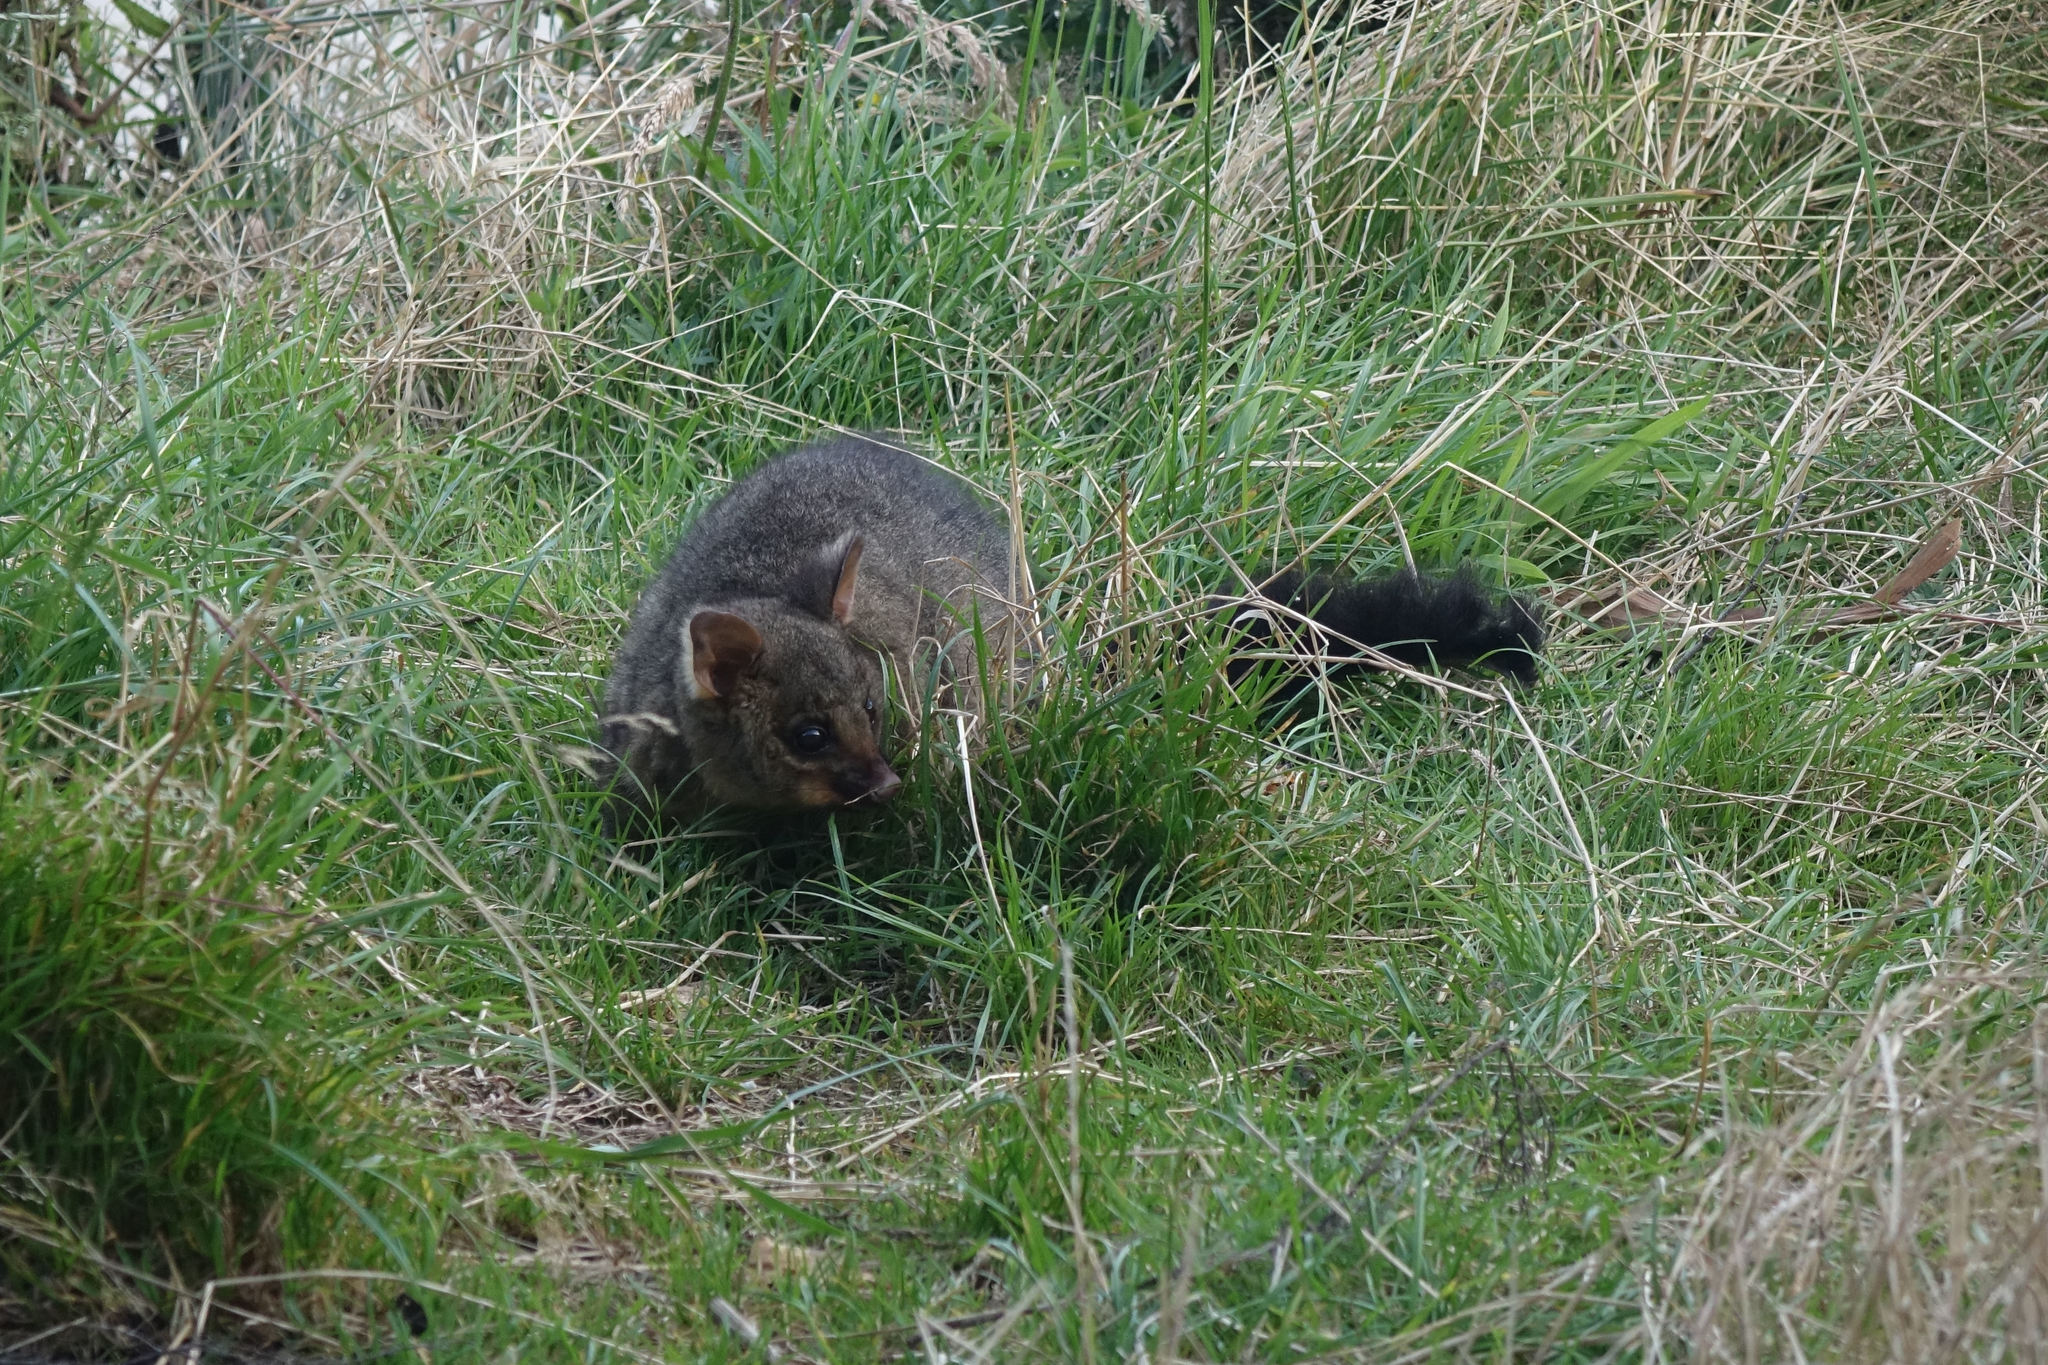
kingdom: Animalia
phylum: Chordata
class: Mammalia
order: Diprotodontia
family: Phalangeridae
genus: Trichosurus
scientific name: Trichosurus vulpecula
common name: Common brushtail
